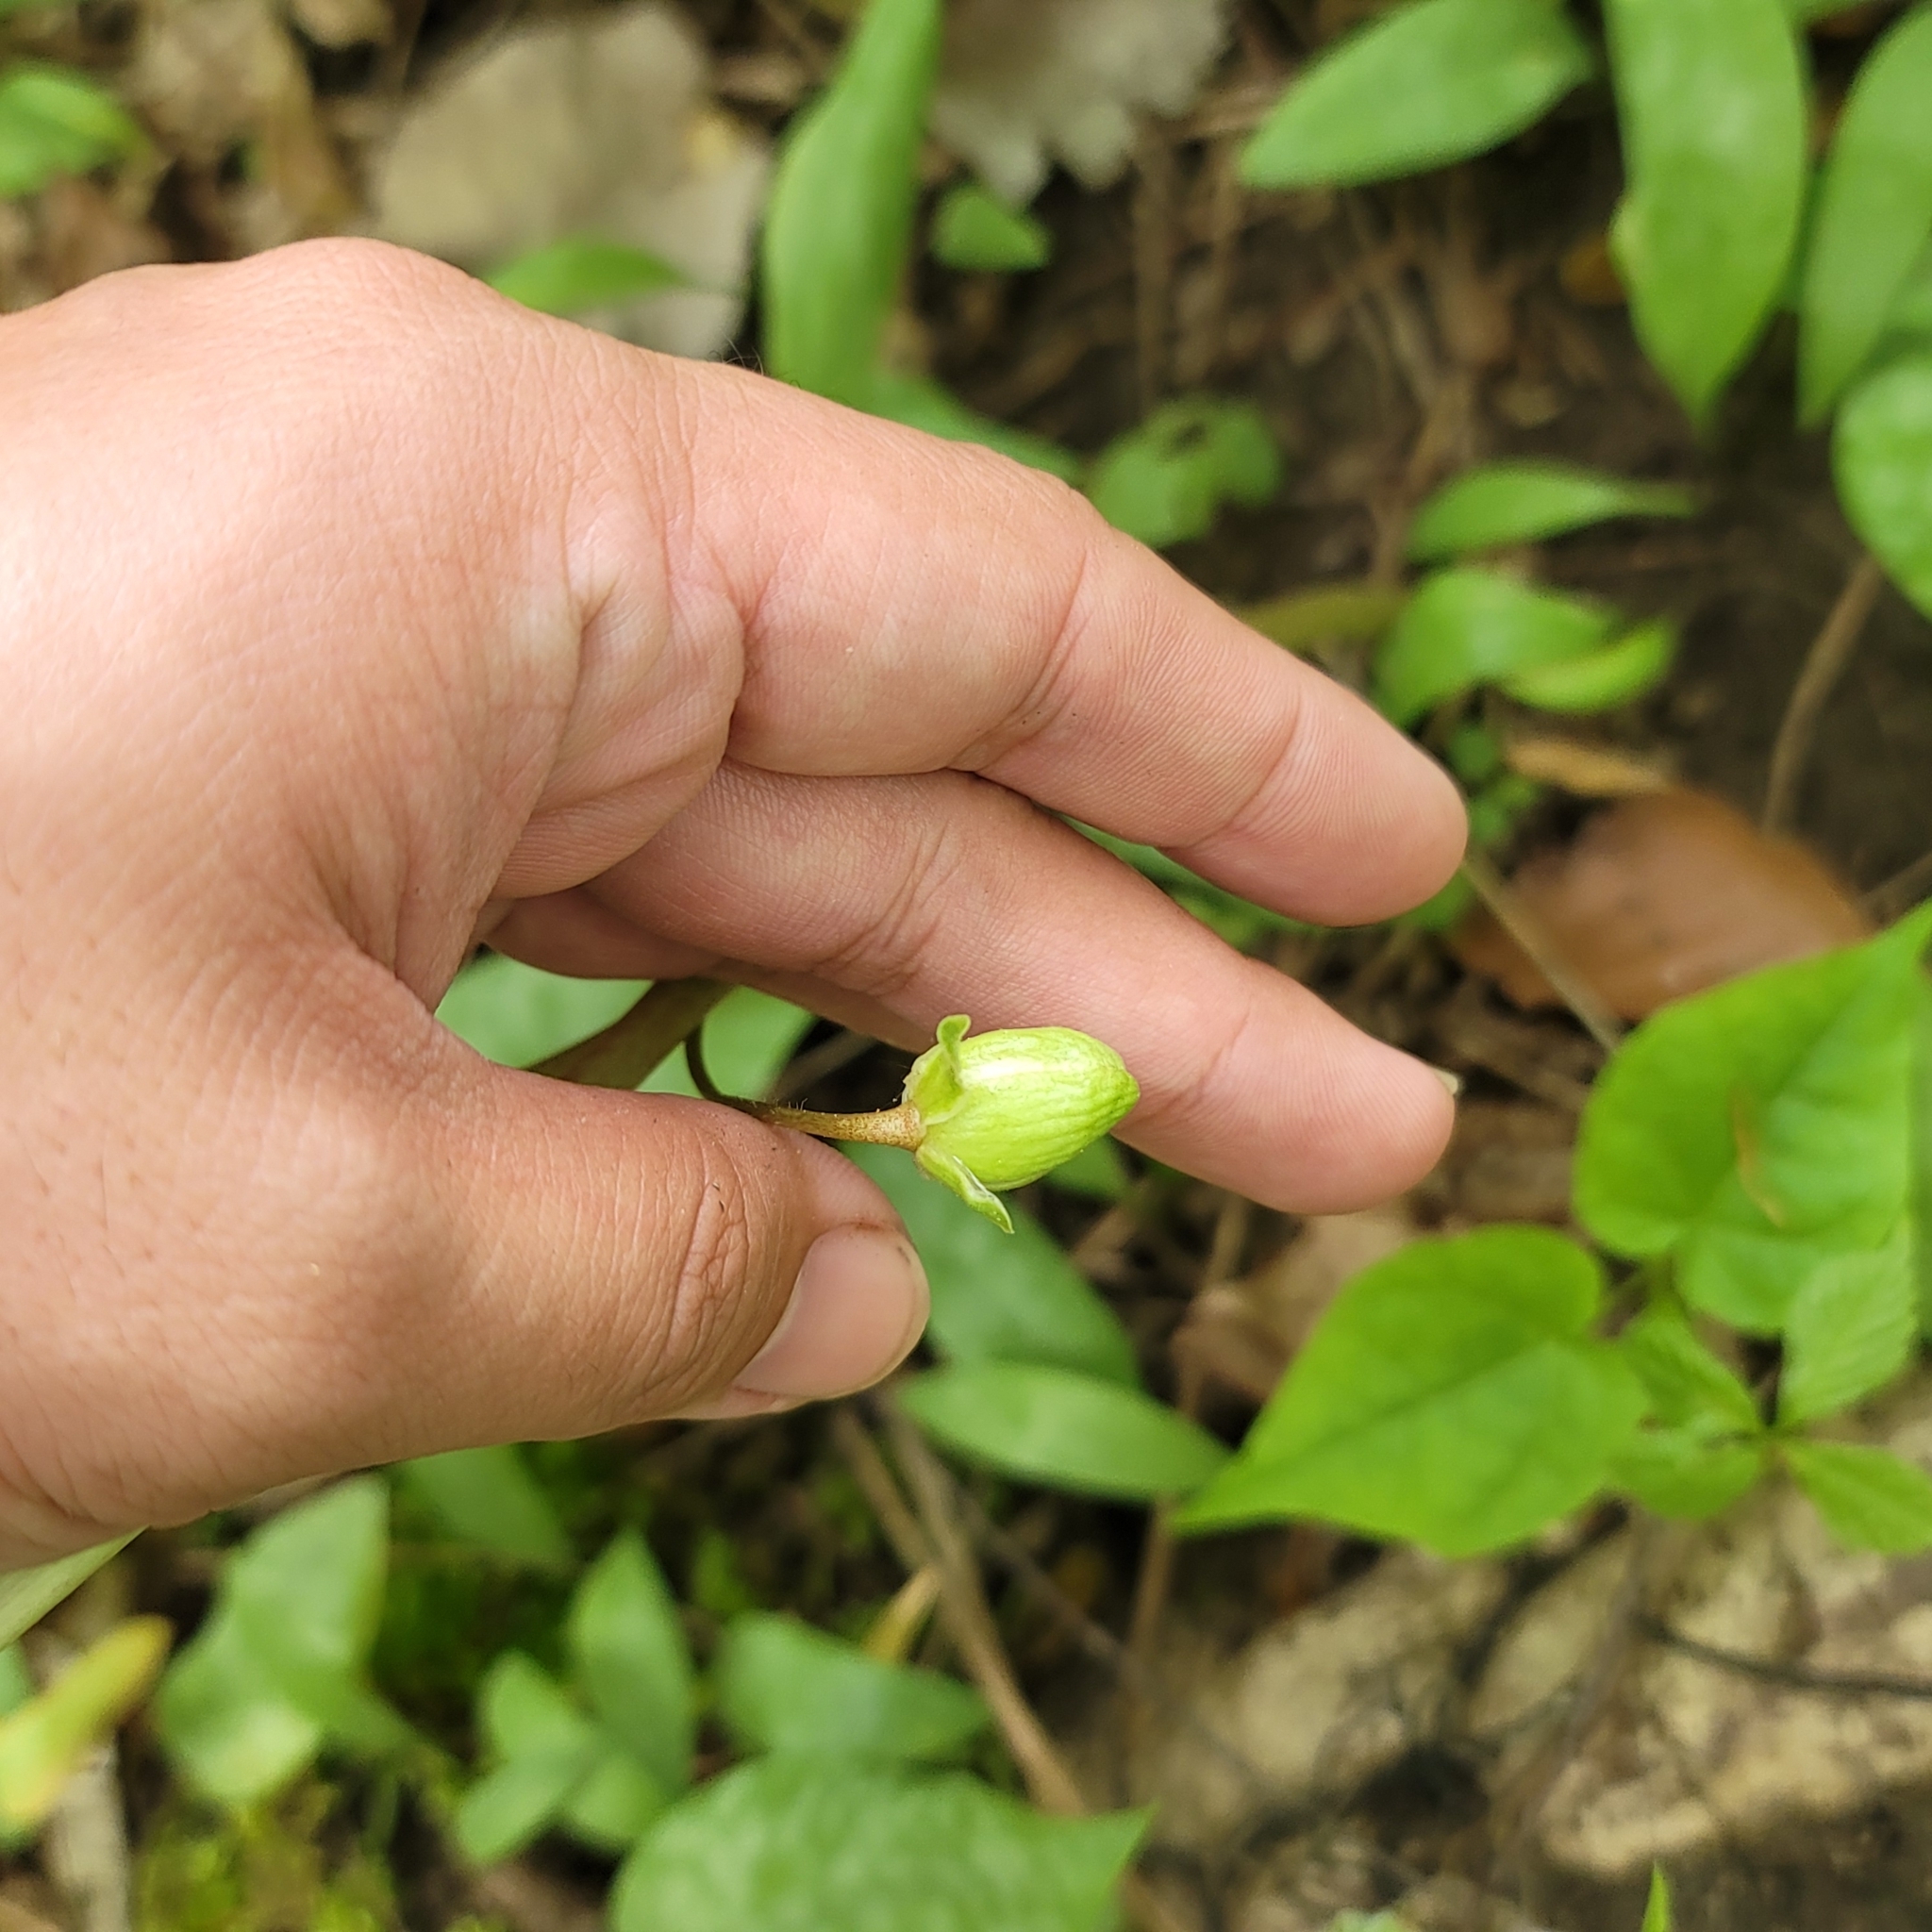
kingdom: Plantae
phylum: Tracheophyta
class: Magnoliopsida
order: Ranunculales
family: Berberidaceae
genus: Podophyllum
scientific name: Podophyllum peltatum
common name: Wild mandrake
